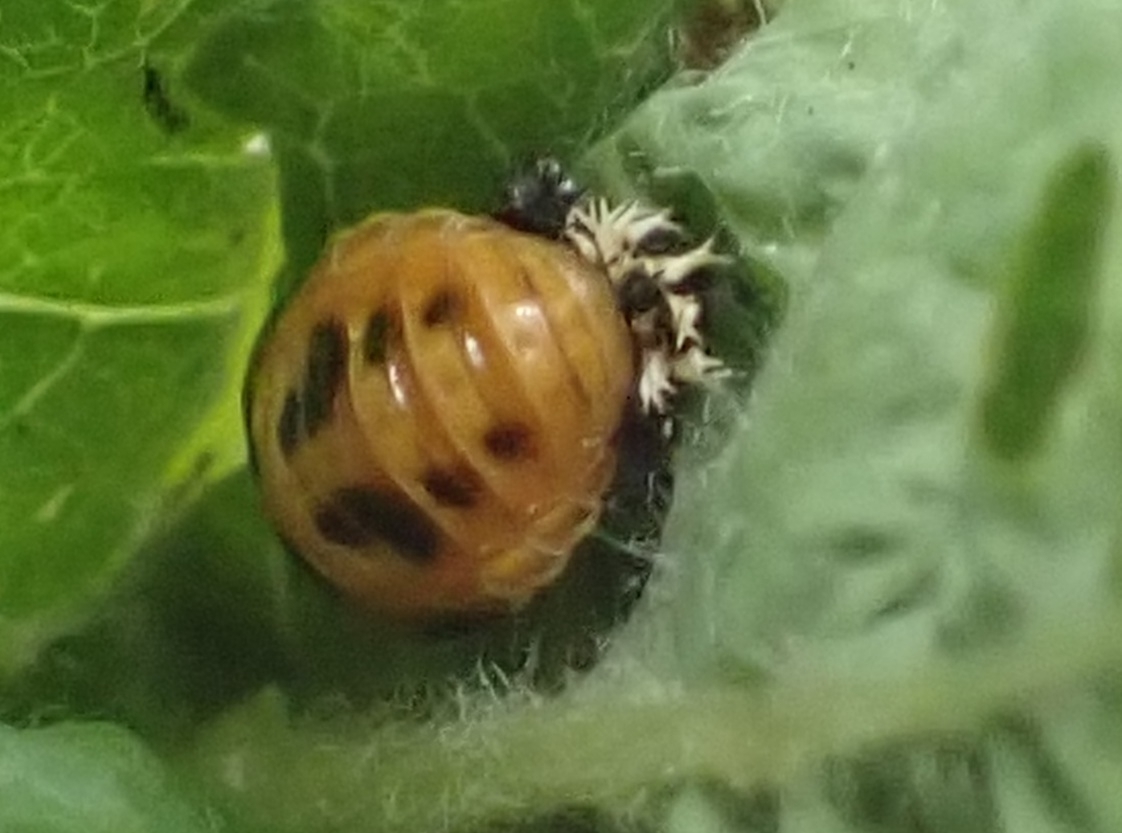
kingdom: Animalia
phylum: Arthropoda
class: Insecta
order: Coleoptera
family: Coccinellidae
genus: Harmonia
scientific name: Harmonia axyridis
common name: Harlequin ladybird
